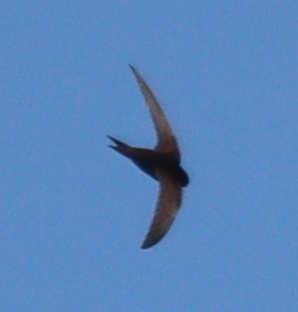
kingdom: Animalia
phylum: Chordata
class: Aves
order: Apodiformes
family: Apodidae
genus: Apus
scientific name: Apus apus
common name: Common swift
